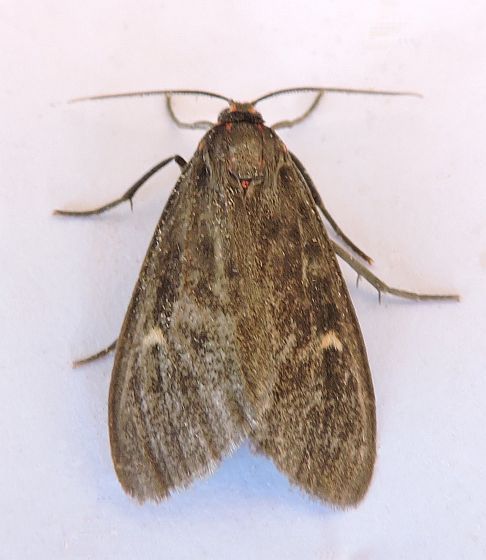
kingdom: Animalia
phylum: Arthropoda
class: Insecta
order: Lepidoptera
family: Erebidae
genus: Euchaetes
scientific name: Euchaetes zella
